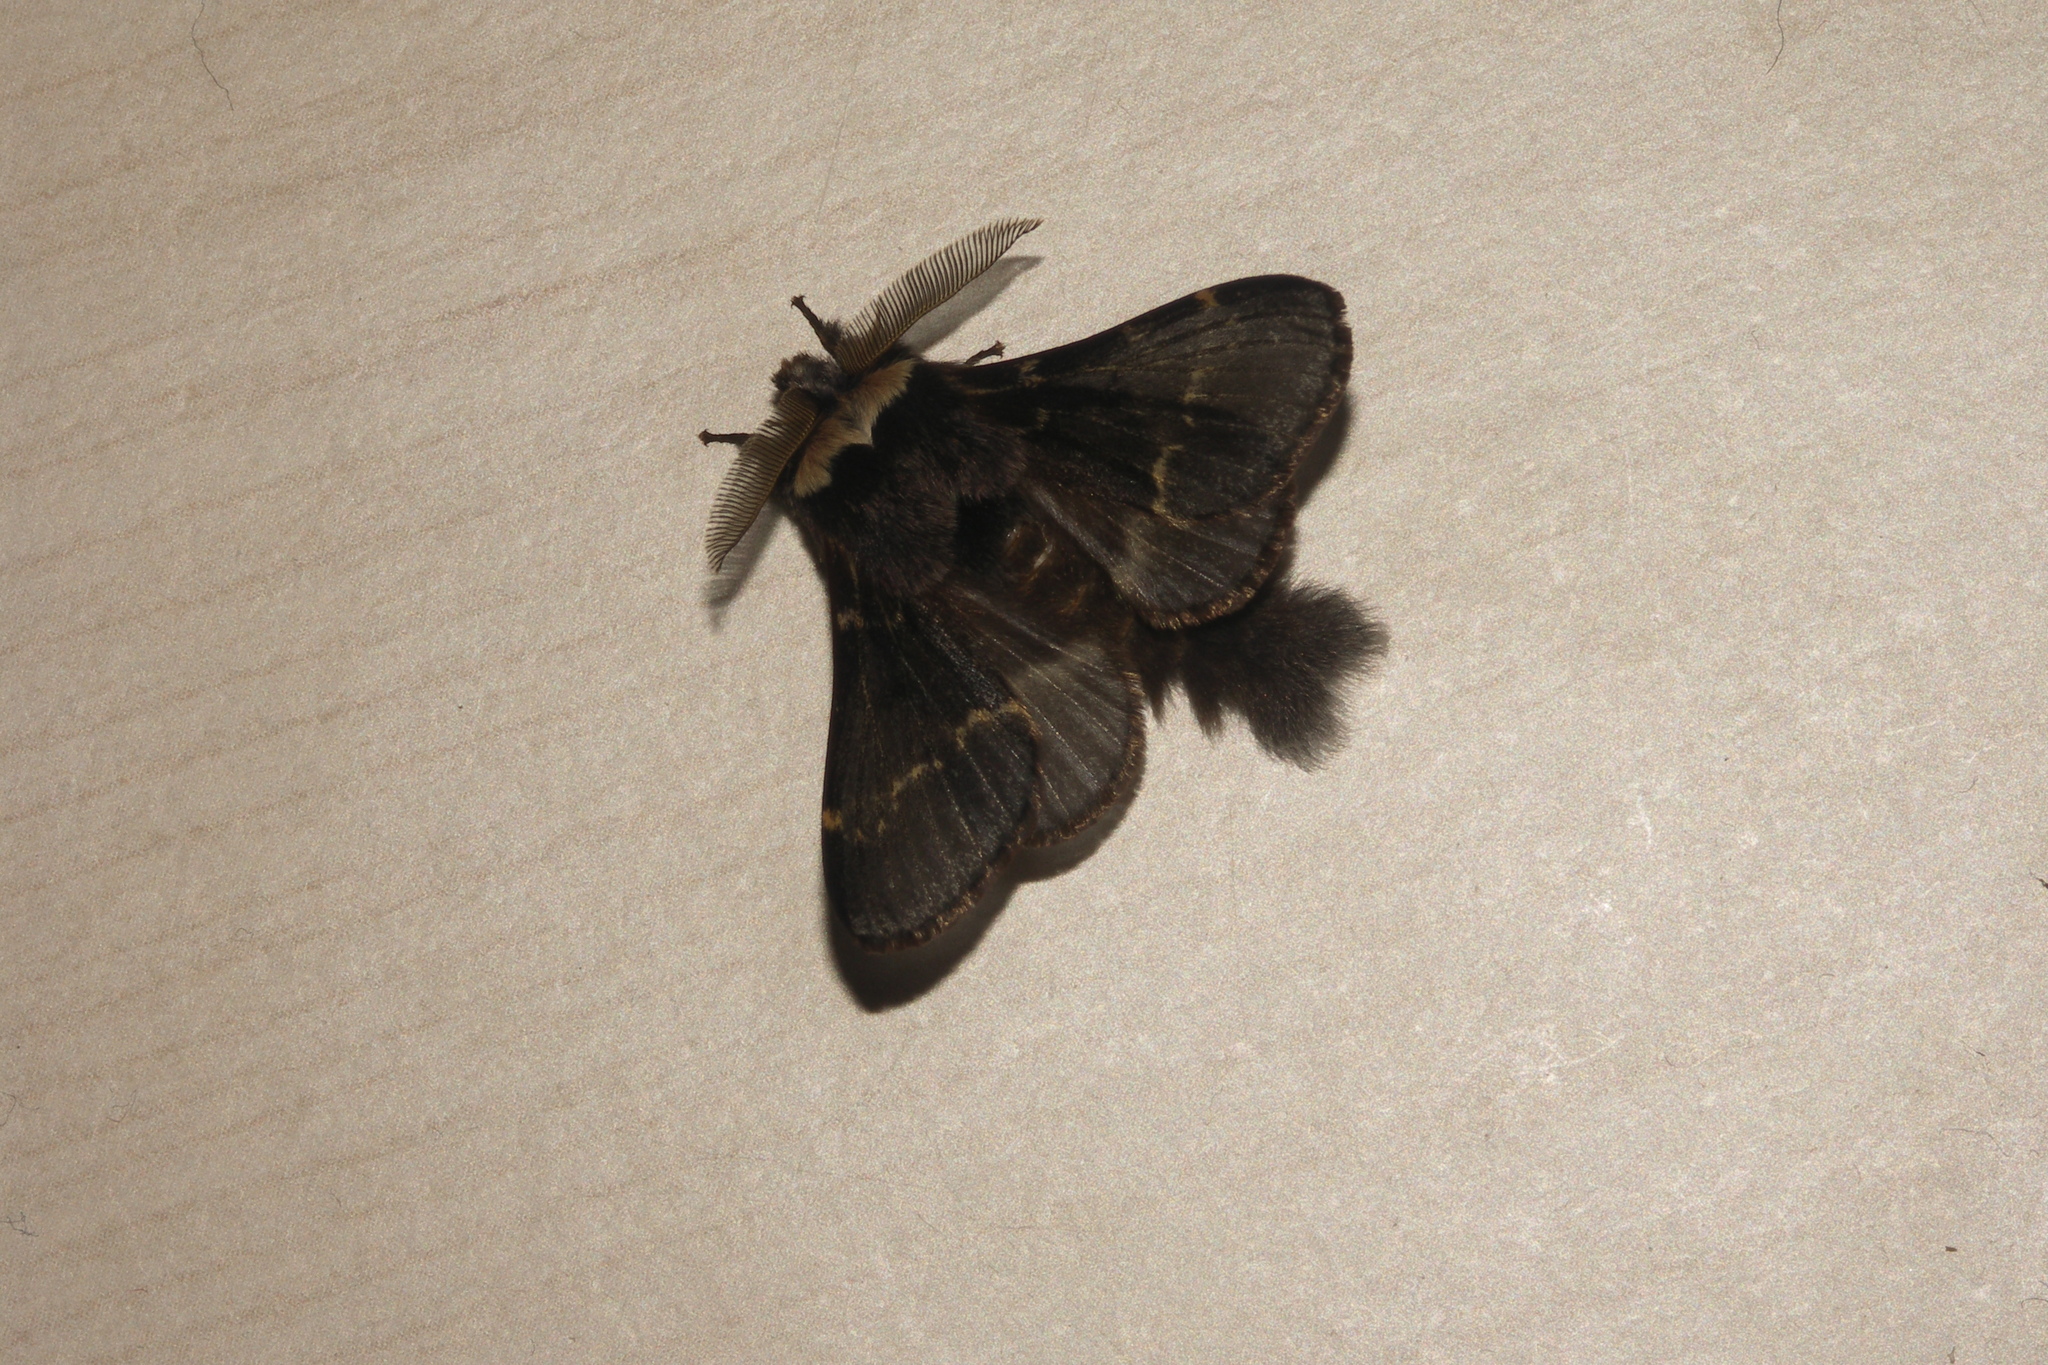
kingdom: Animalia
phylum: Arthropoda
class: Insecta
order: Lepidoptera
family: Lasiocampidae
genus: Poecilocampa
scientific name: Poecilocampa populi
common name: December moth
